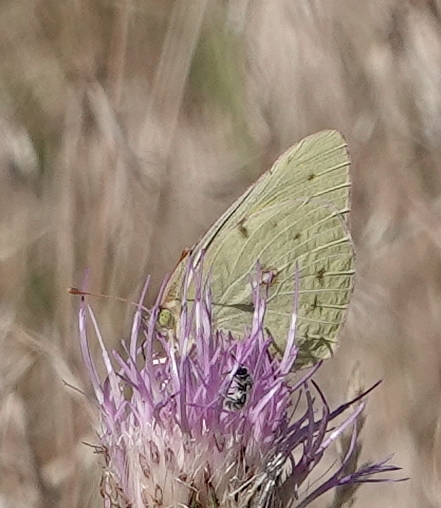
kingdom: Animalia
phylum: Arthropoda
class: Insecta
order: Lepidoptera
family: Pieridae
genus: Colias
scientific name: Colias eurytheme
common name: Alfalfa butterfly
